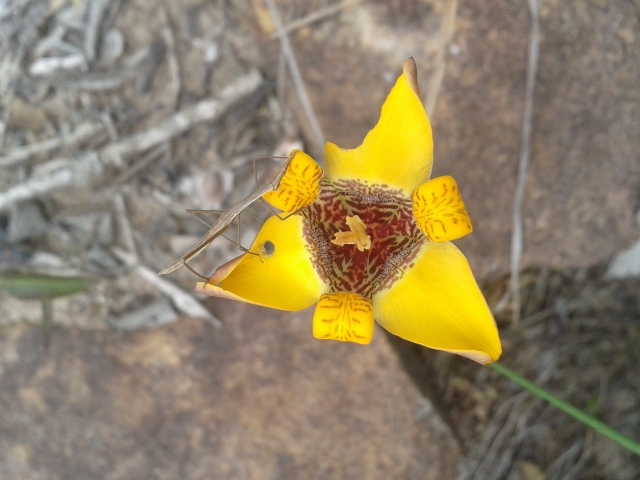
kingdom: Plantae
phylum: Tracheophyta
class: Liliopsida
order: Asparagales
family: Iridaceae
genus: Trimezia
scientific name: Trimezia juncifolia
